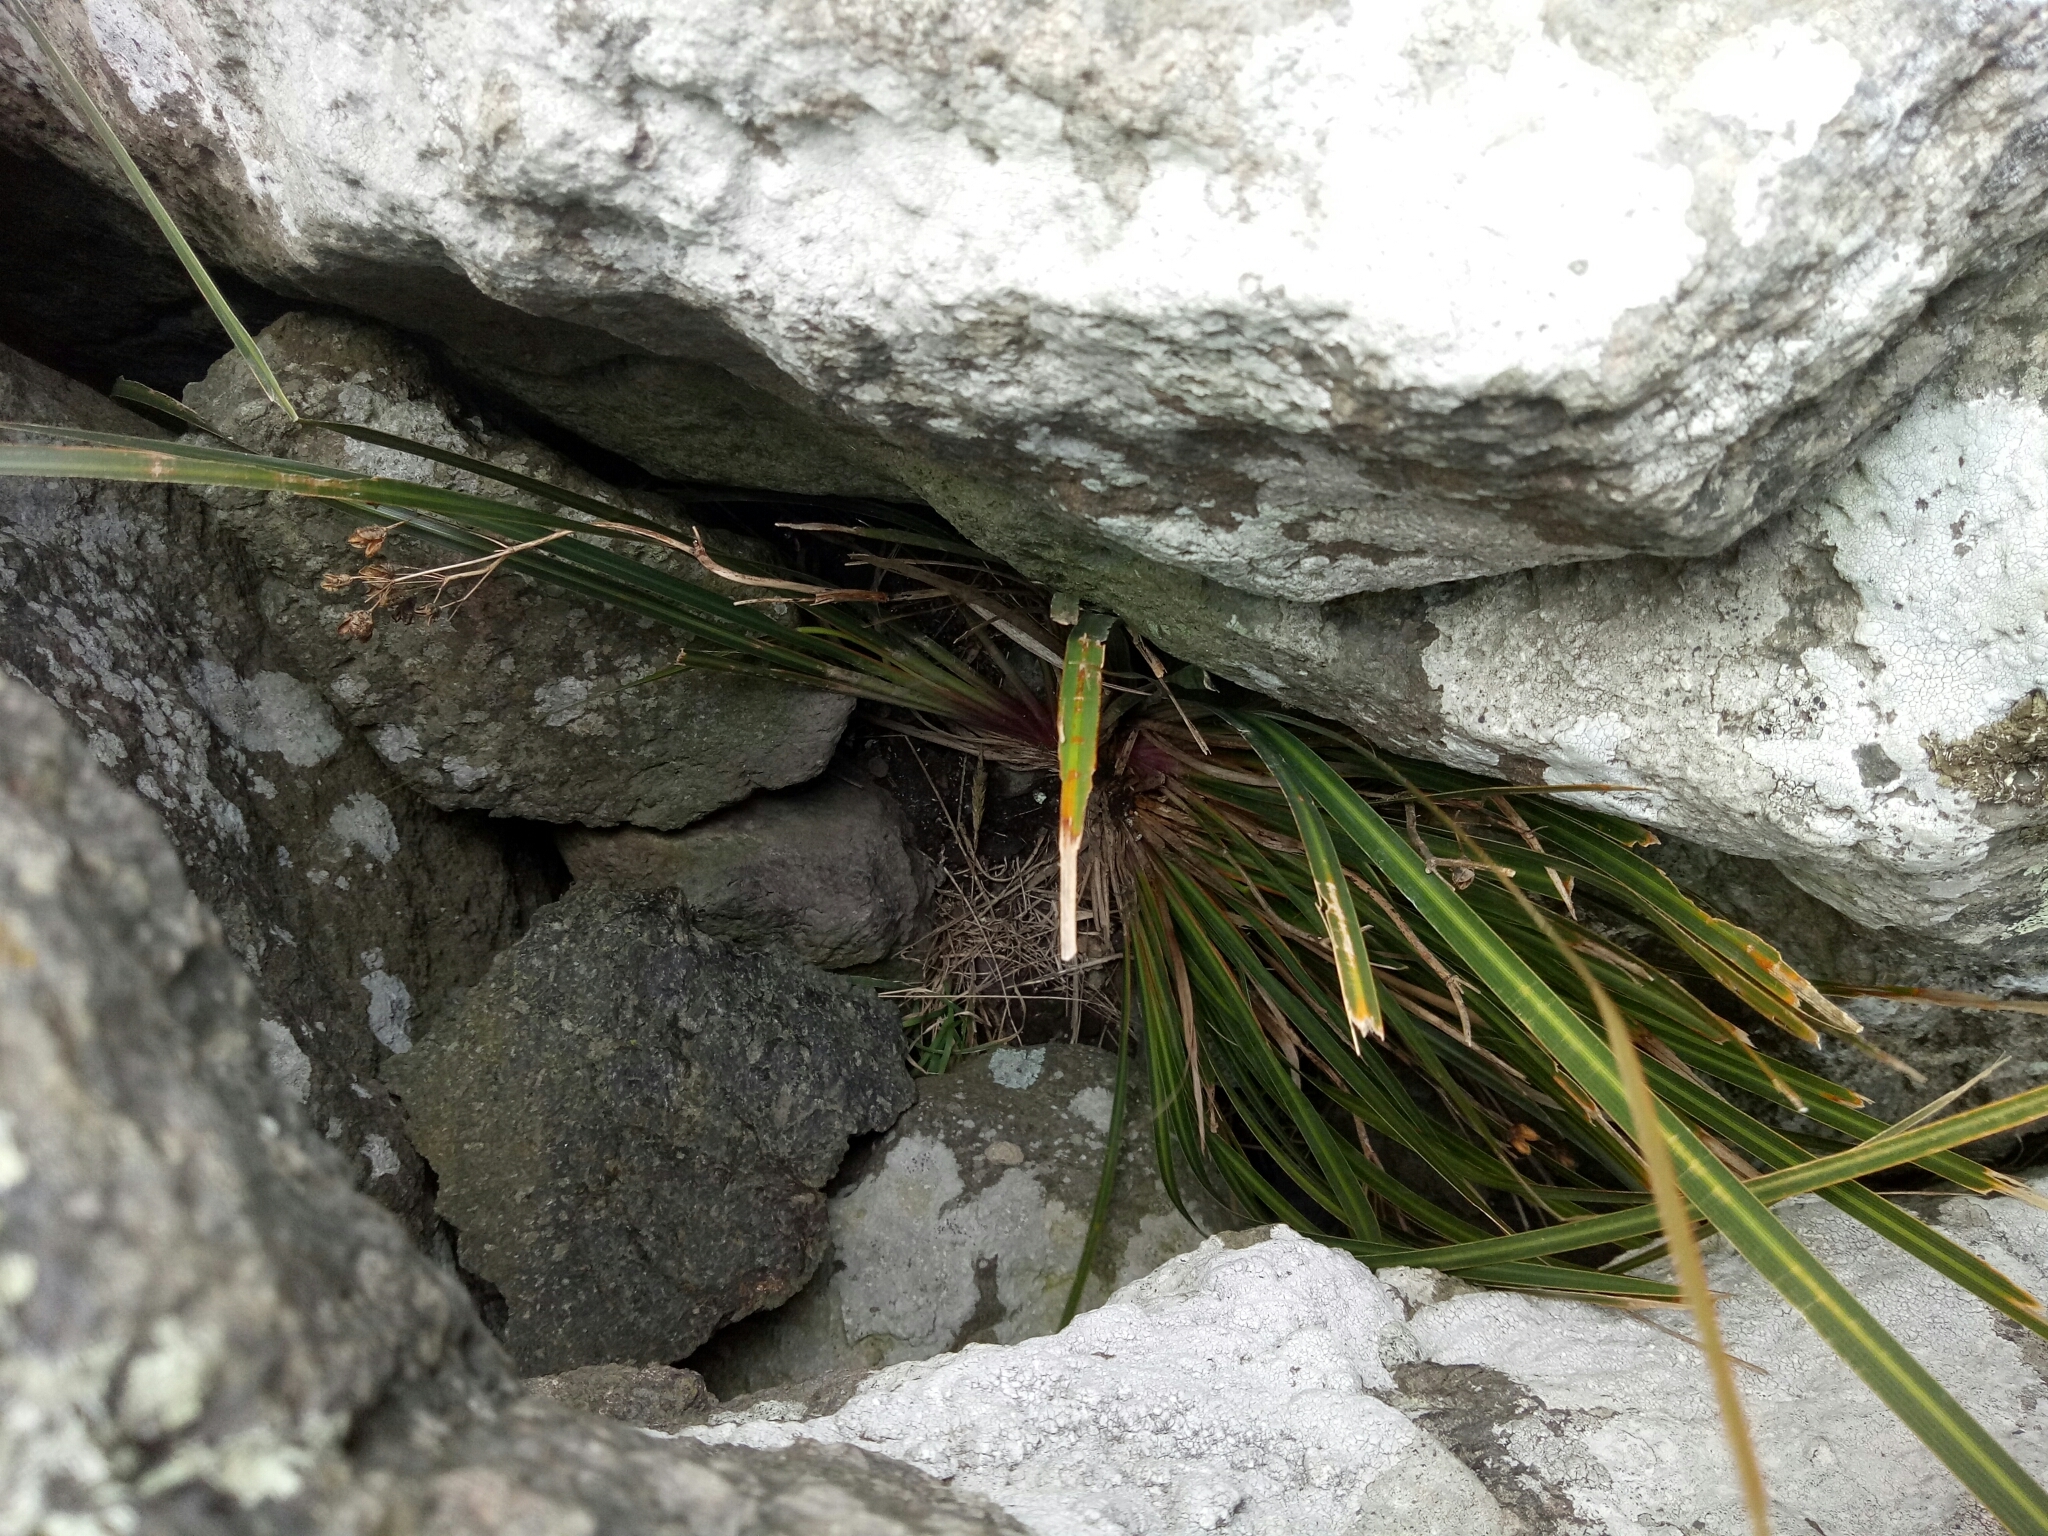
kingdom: Plantae
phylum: Tracheophyta
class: Liliopsida
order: Asparagales
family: Iridaceae
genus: Libertia
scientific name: Libertia ixioides
